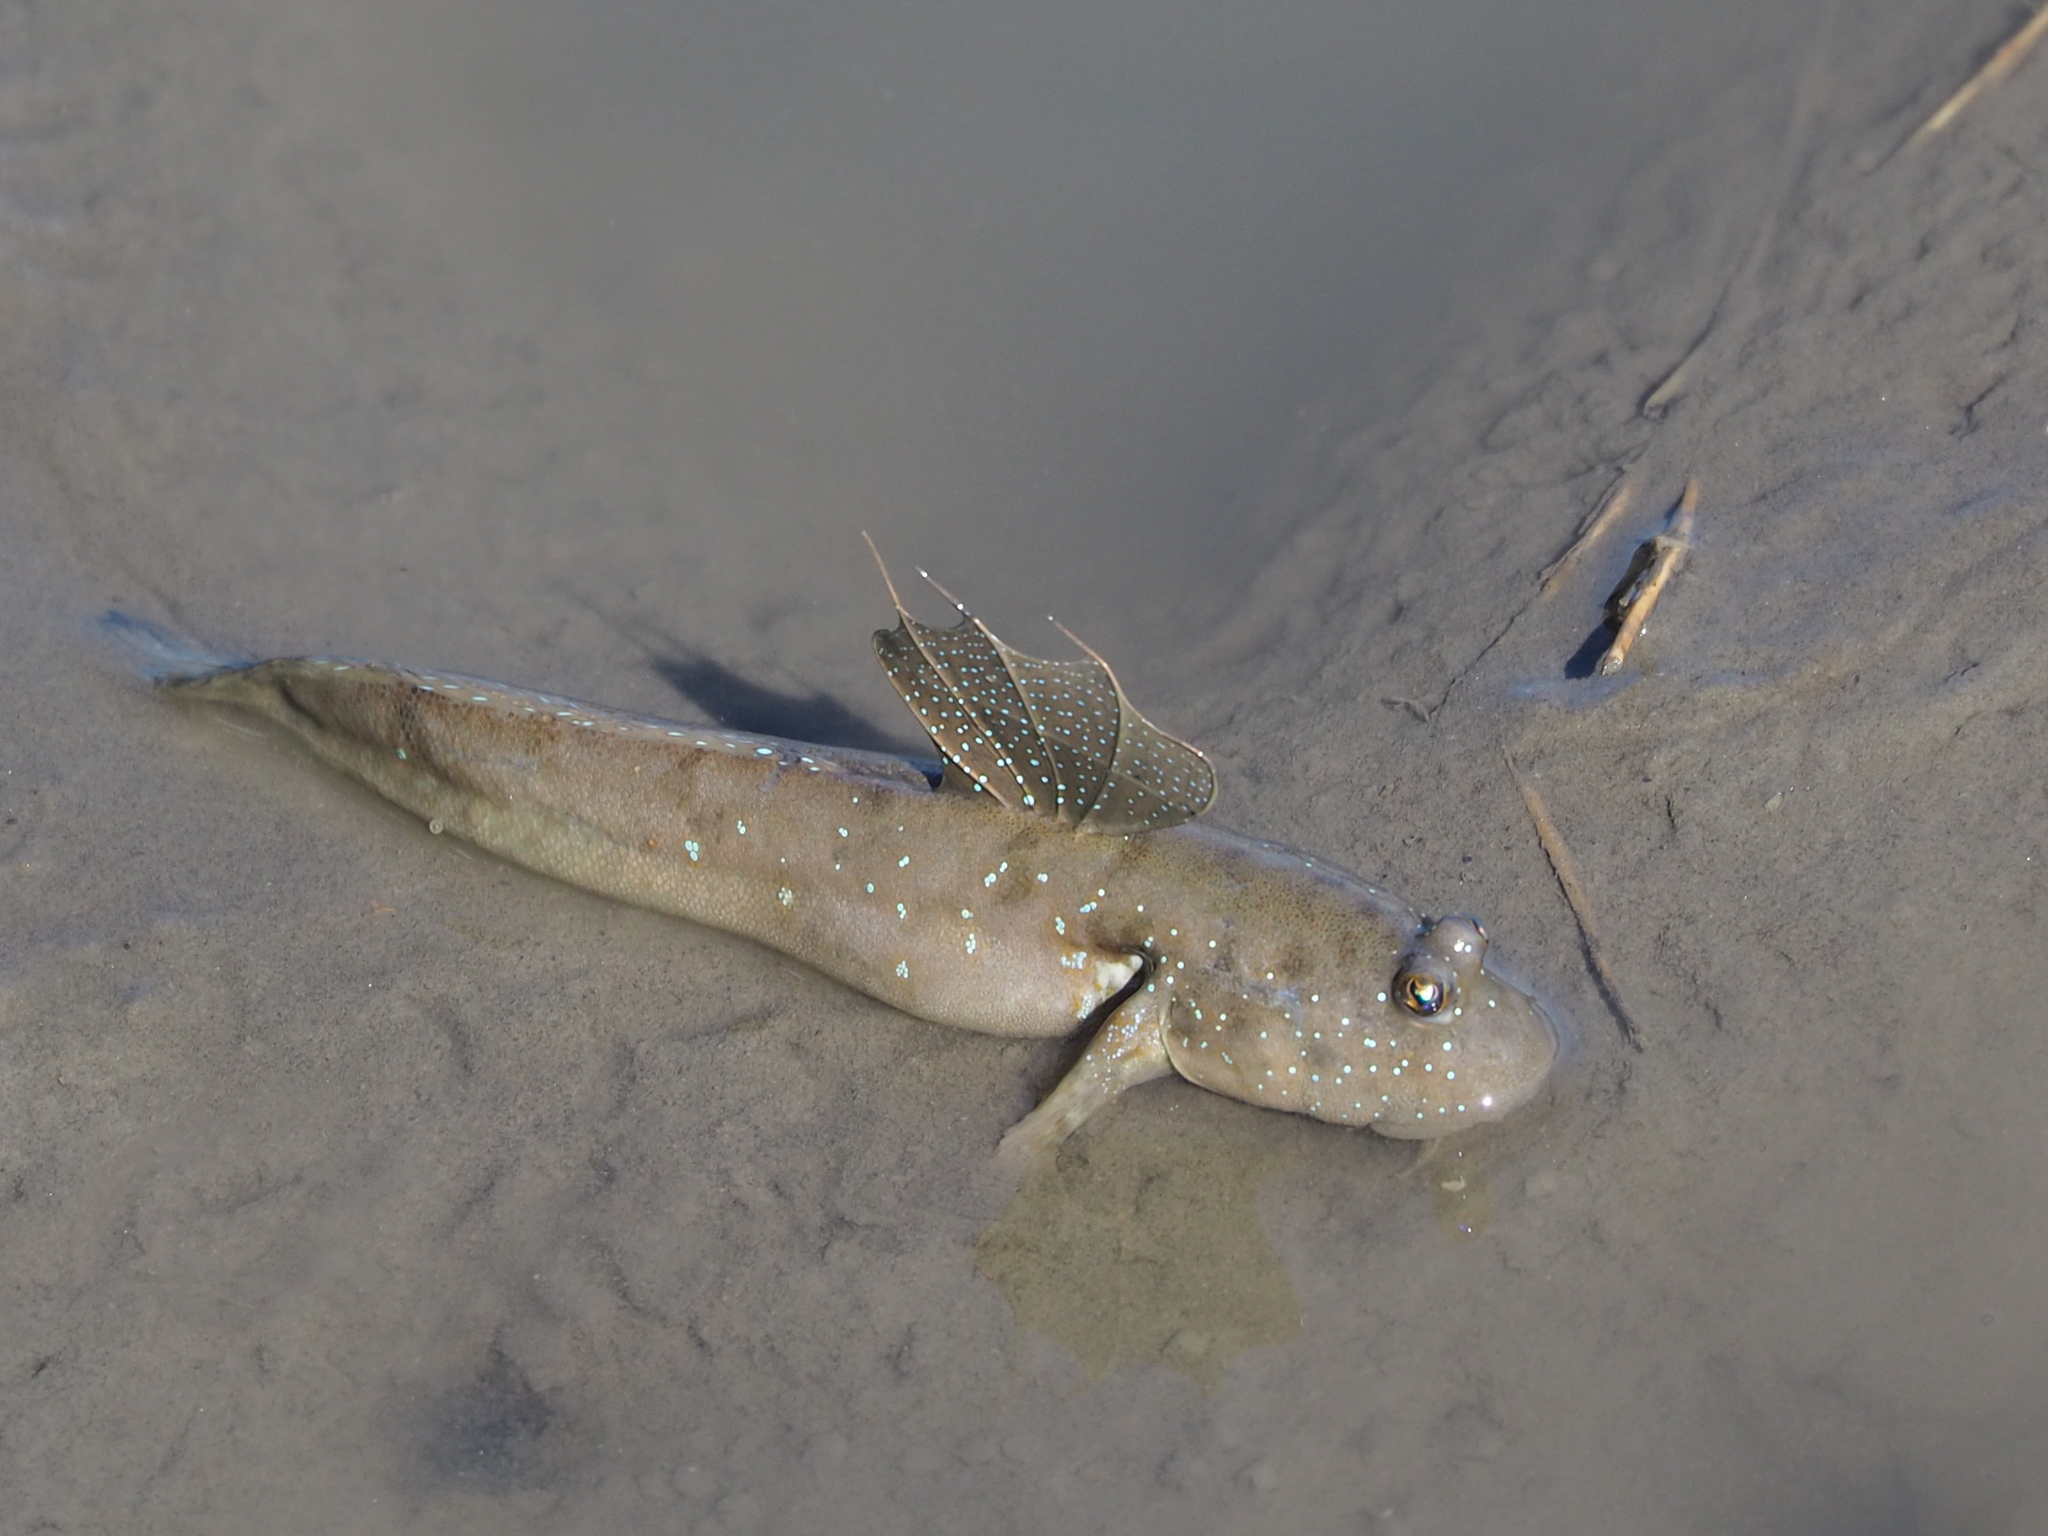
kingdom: Animalia
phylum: Chordata
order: Perciformes
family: Gobiidae
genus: Boleophthalmus
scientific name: Boleophthalmus pectinirostris
